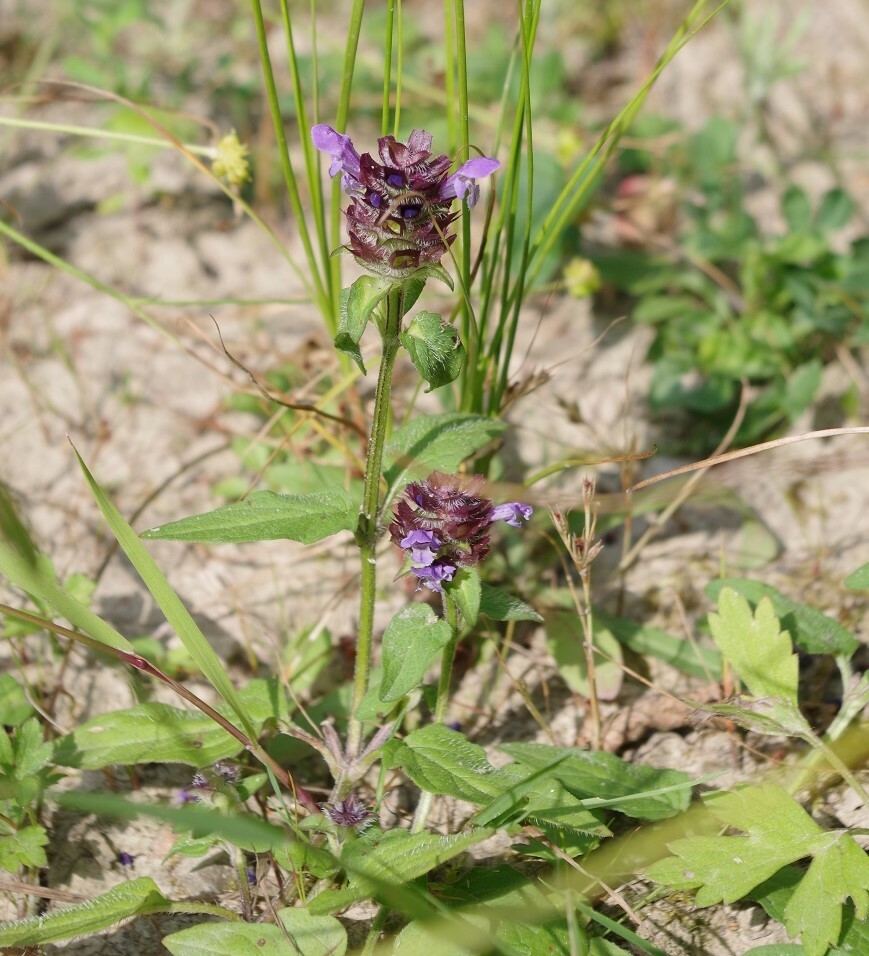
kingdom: Plantae
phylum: Tracheophyta
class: Magnoliopsida
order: Lamiales
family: Lamiaceae
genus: Prunella
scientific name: Prunella vulgaris
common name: Heal-all
